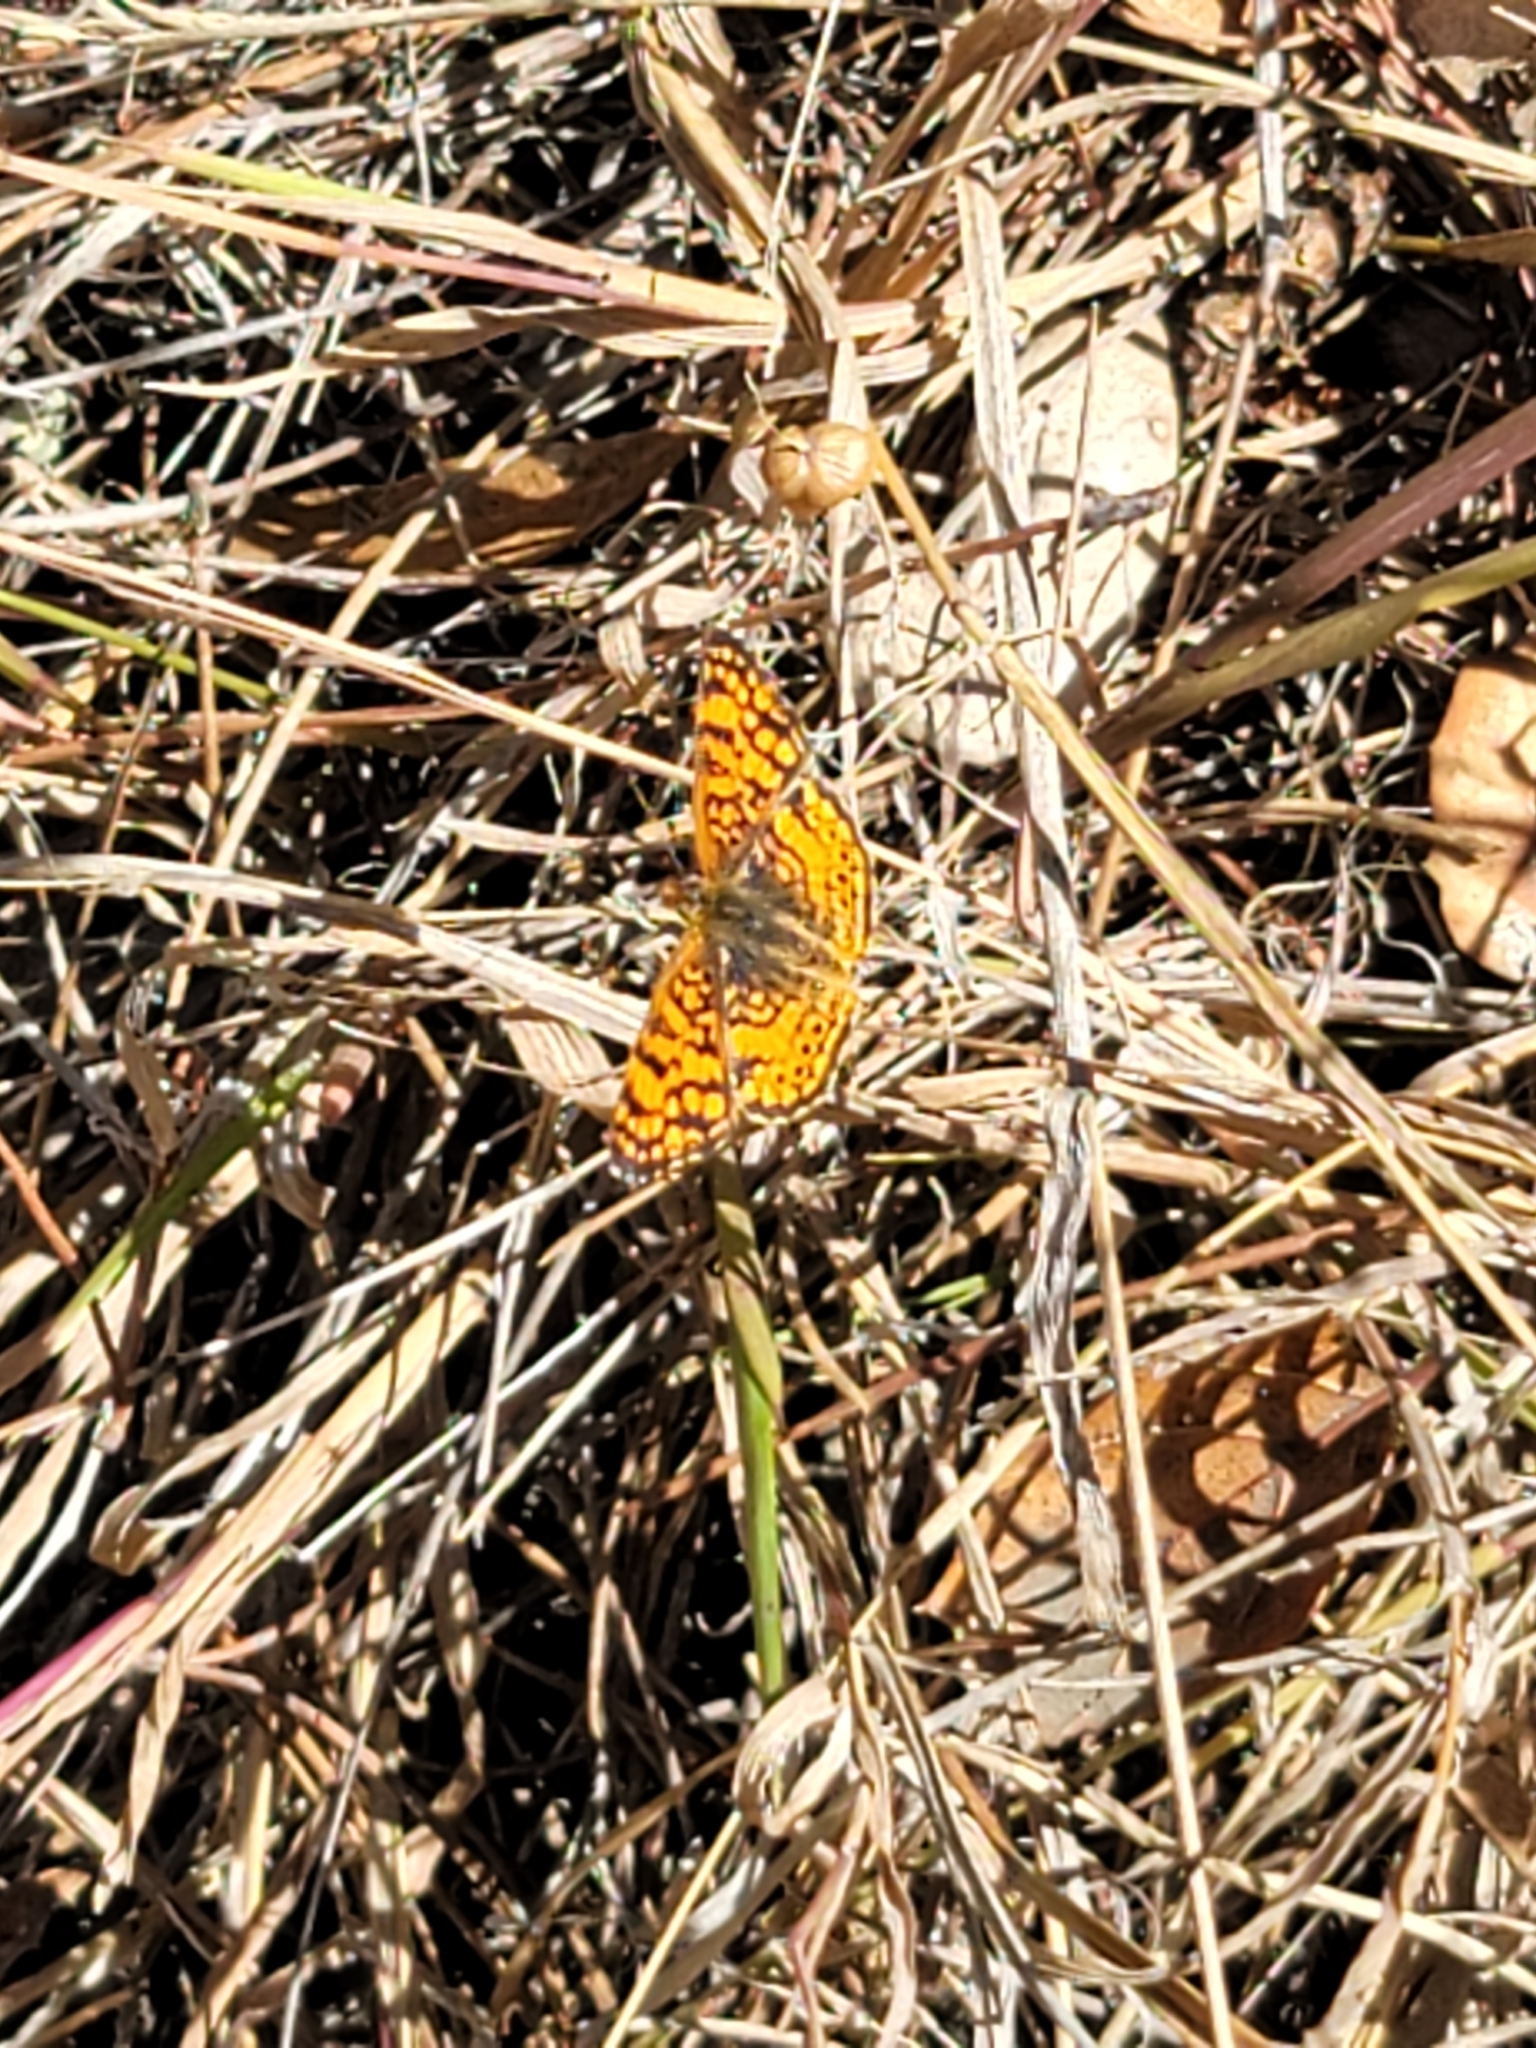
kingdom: Animalia
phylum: Arthropoda
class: Insecta
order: Lepidoptera
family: Nymphalidae
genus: Eresia
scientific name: Eresia aveyrona
